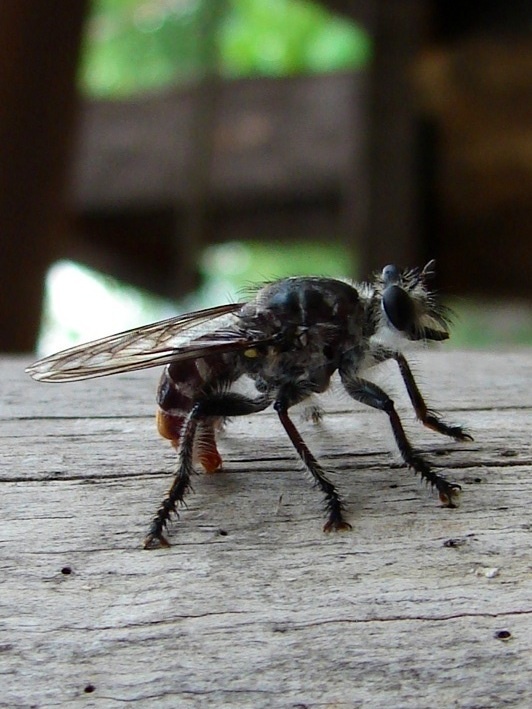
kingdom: Animalia
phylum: Arthropoda
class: Insecta
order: Diptera
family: Asilidae
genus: Andrenosoma
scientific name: Andrenosoma
